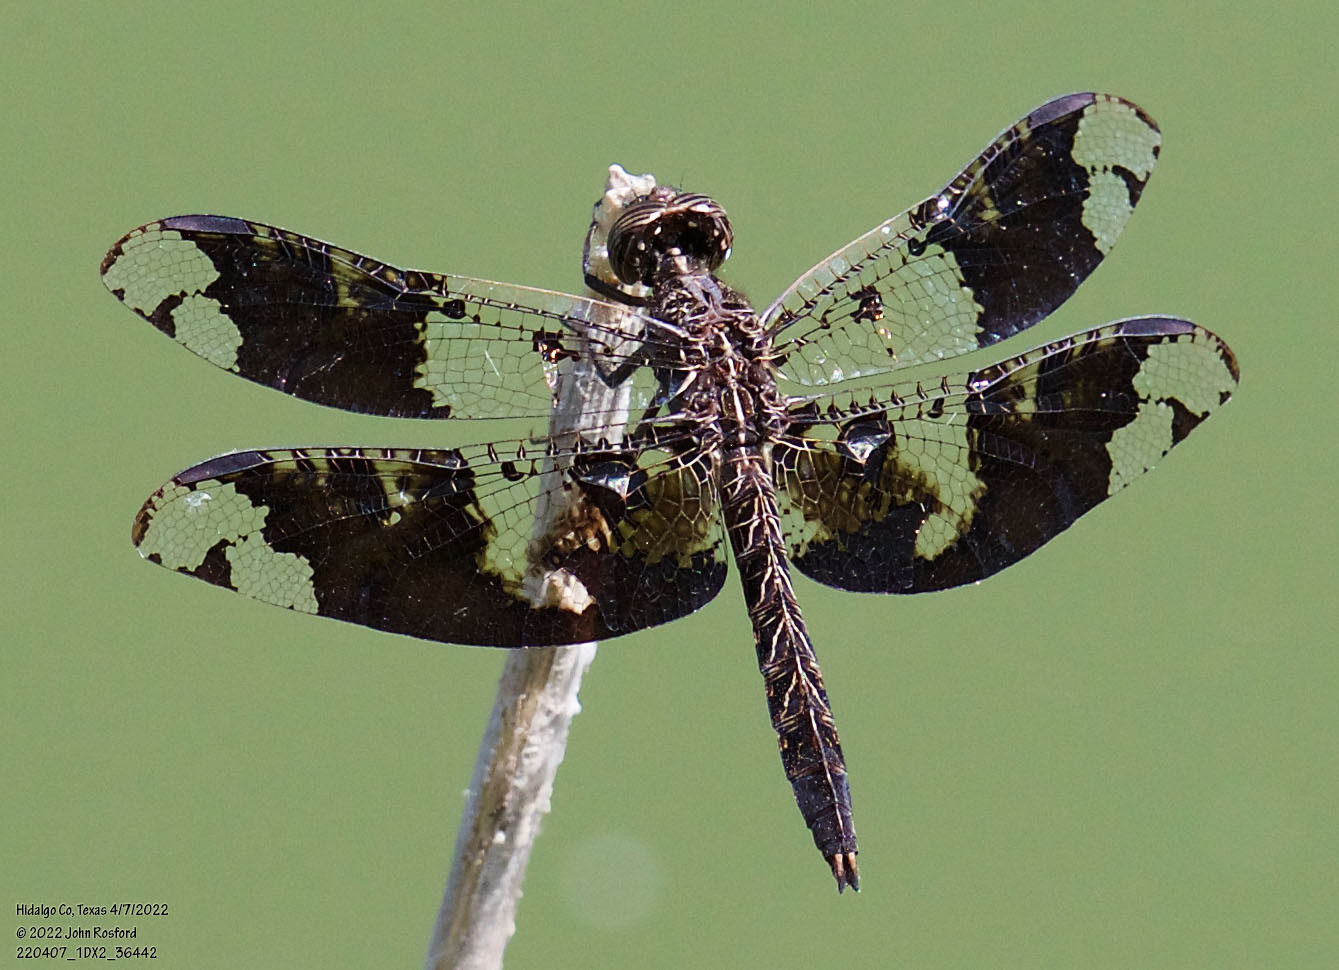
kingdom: Animalia
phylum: Arthropoda
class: Insecta
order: Odonata
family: Libellulidae
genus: Pseudoleon
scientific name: Pseudoleon superbus
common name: Filigree skimmer
